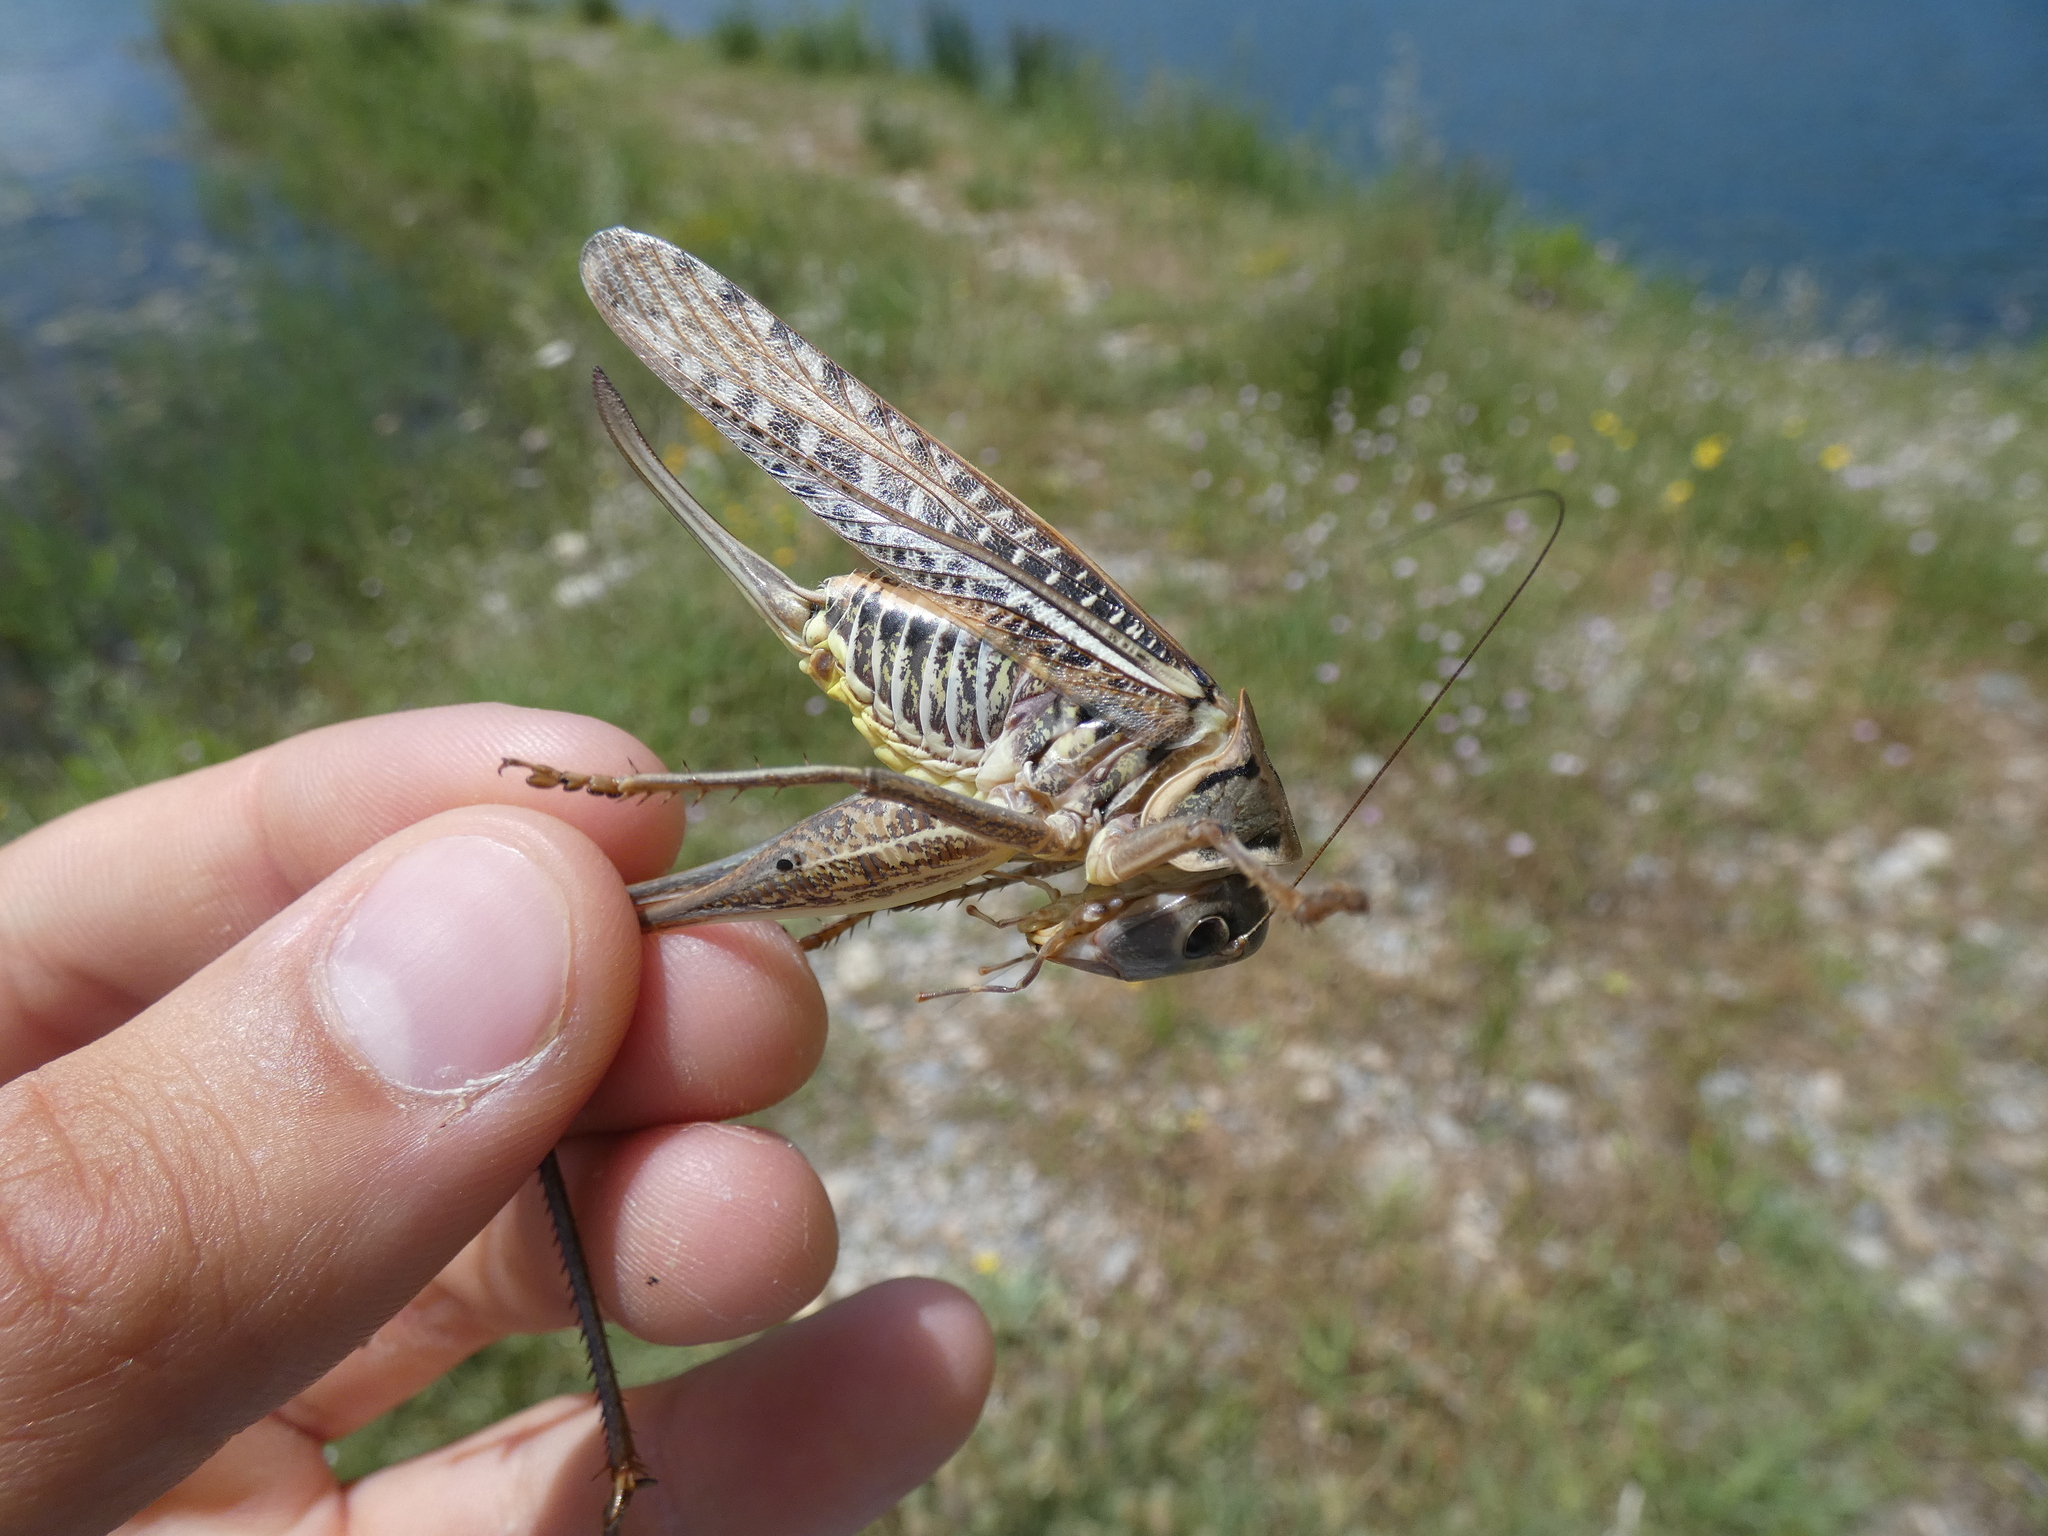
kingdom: Animalia
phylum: Arthropoda
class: Insecta
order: Orthoptera
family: Tettigoniidae
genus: Decticus
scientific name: Decticus albifrons
